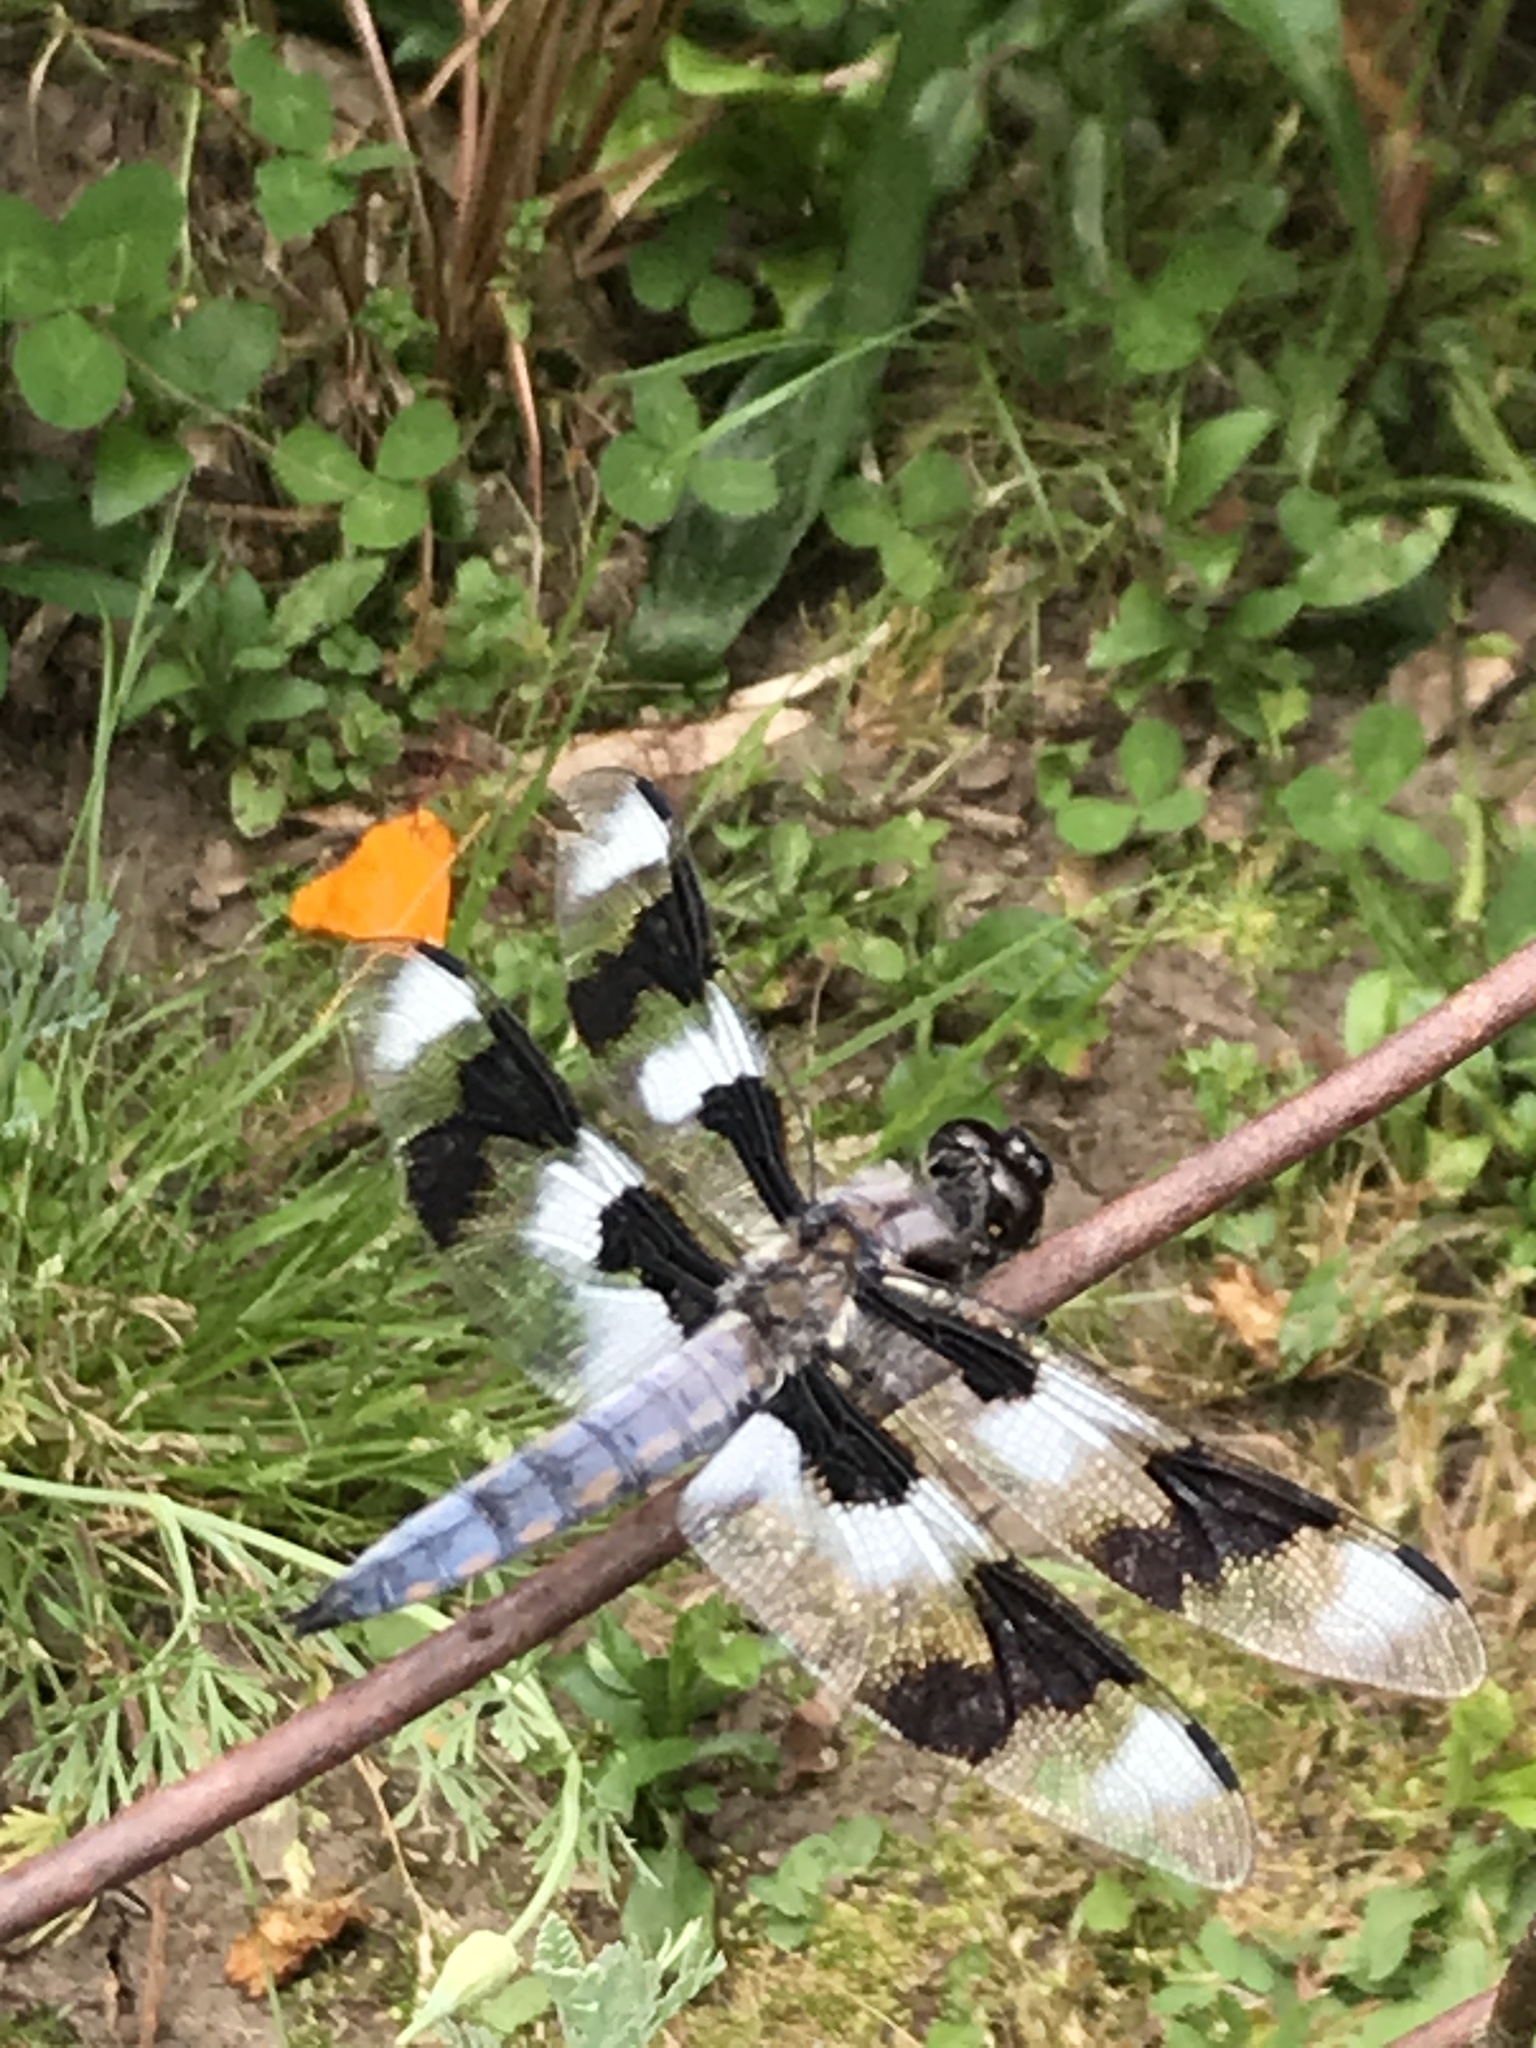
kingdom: Animalia
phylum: Arthropoda
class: Insecta
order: Odonata
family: Libellulidae
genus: Libellula
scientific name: Libellula forensis
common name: Eight-spotted skimmer
